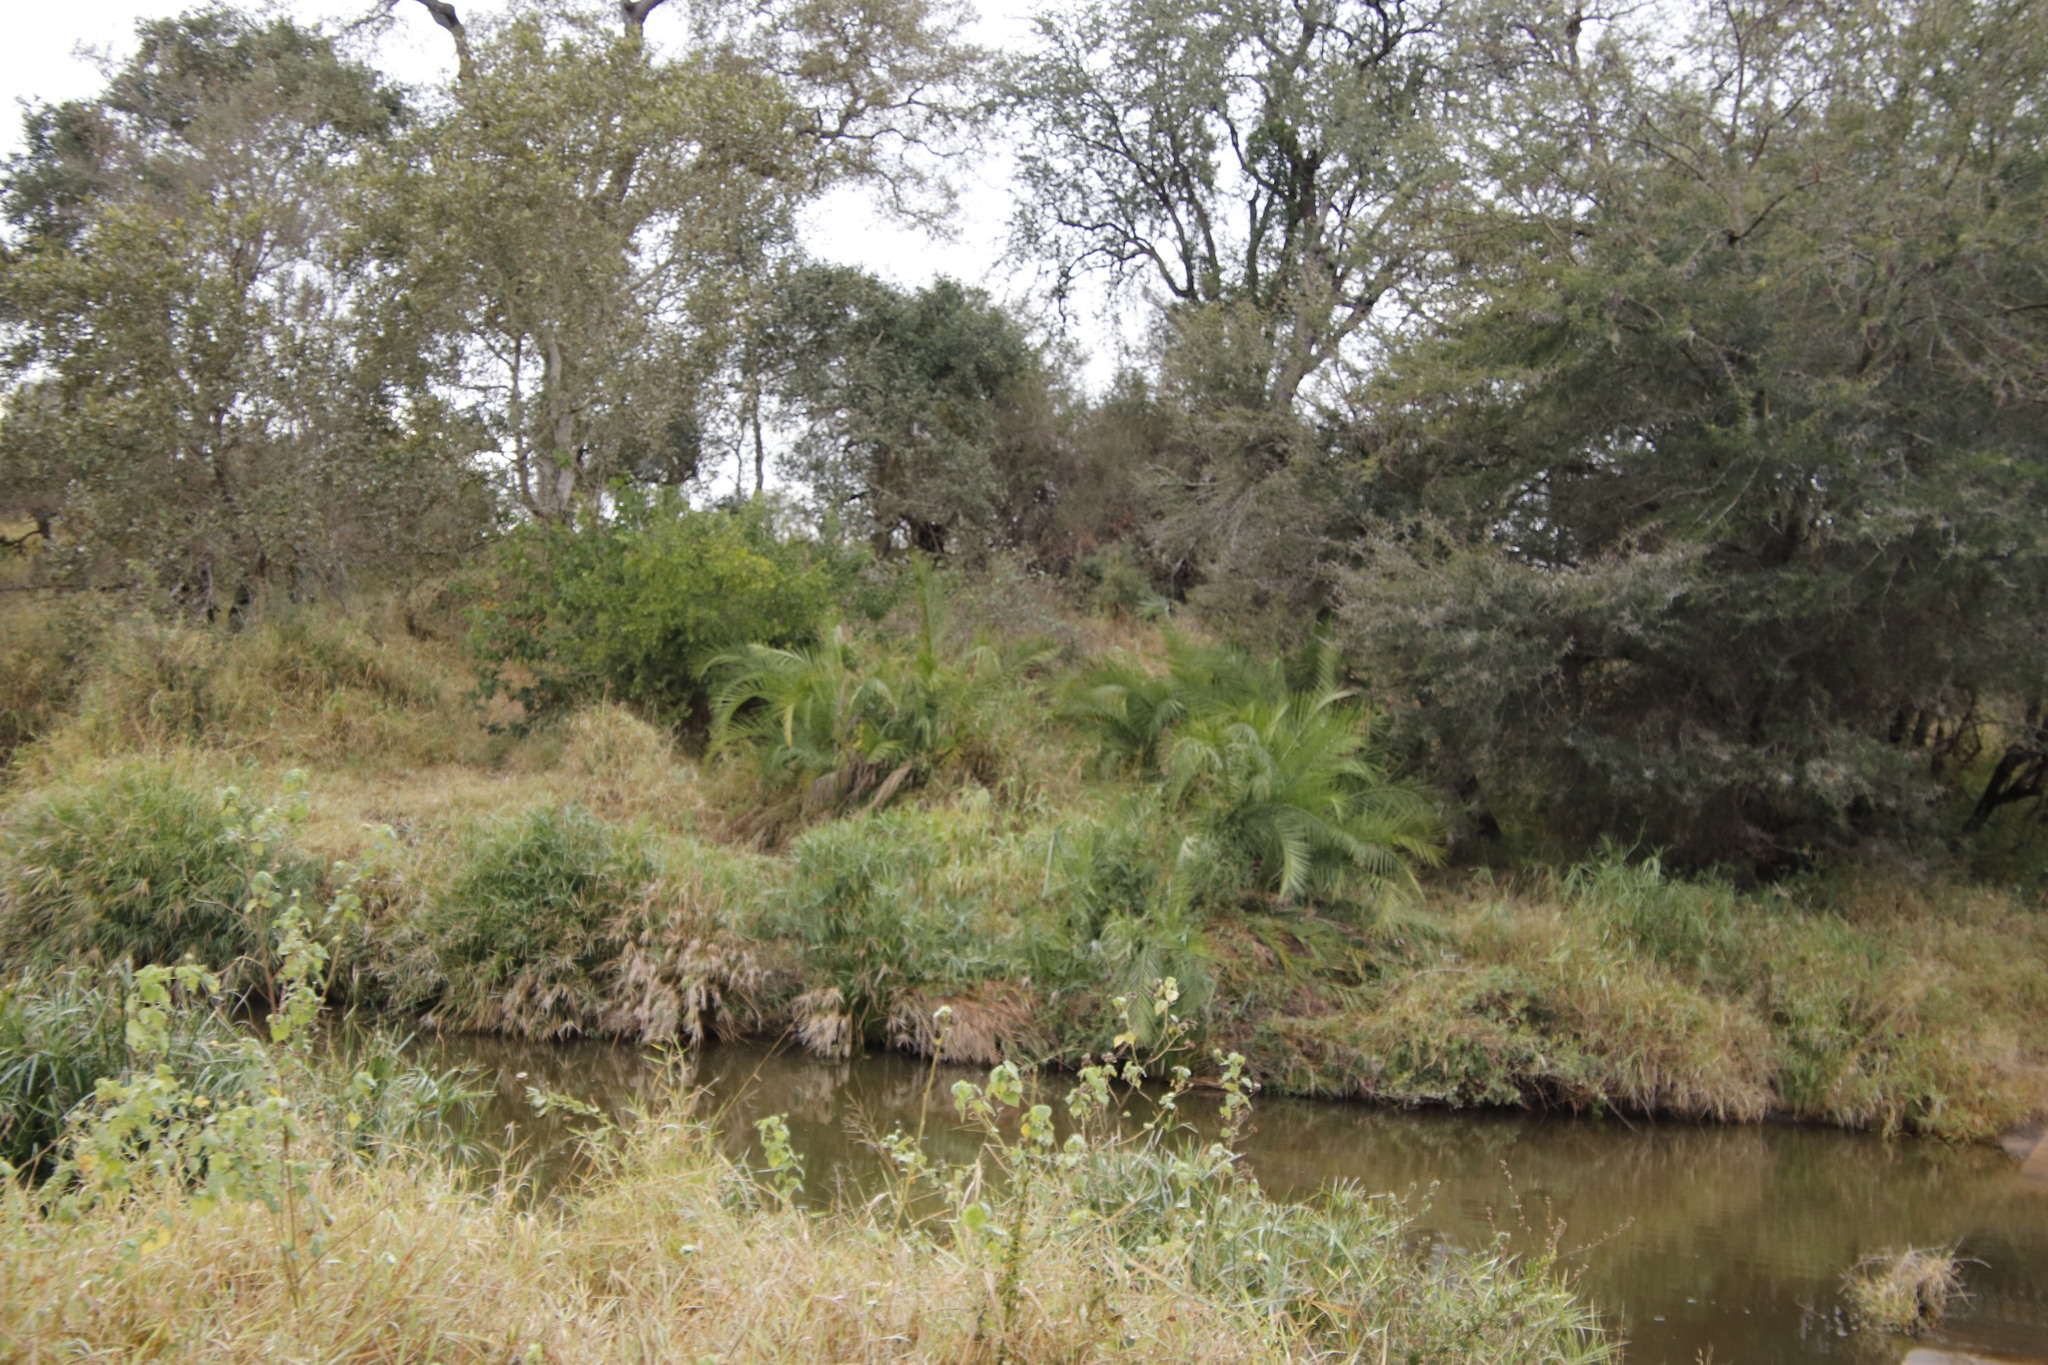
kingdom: Plantae
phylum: Tracheophyta
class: Liliopsida
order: Poales
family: Cyperaceae
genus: Cyperus
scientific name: Cyperus alternifolius
